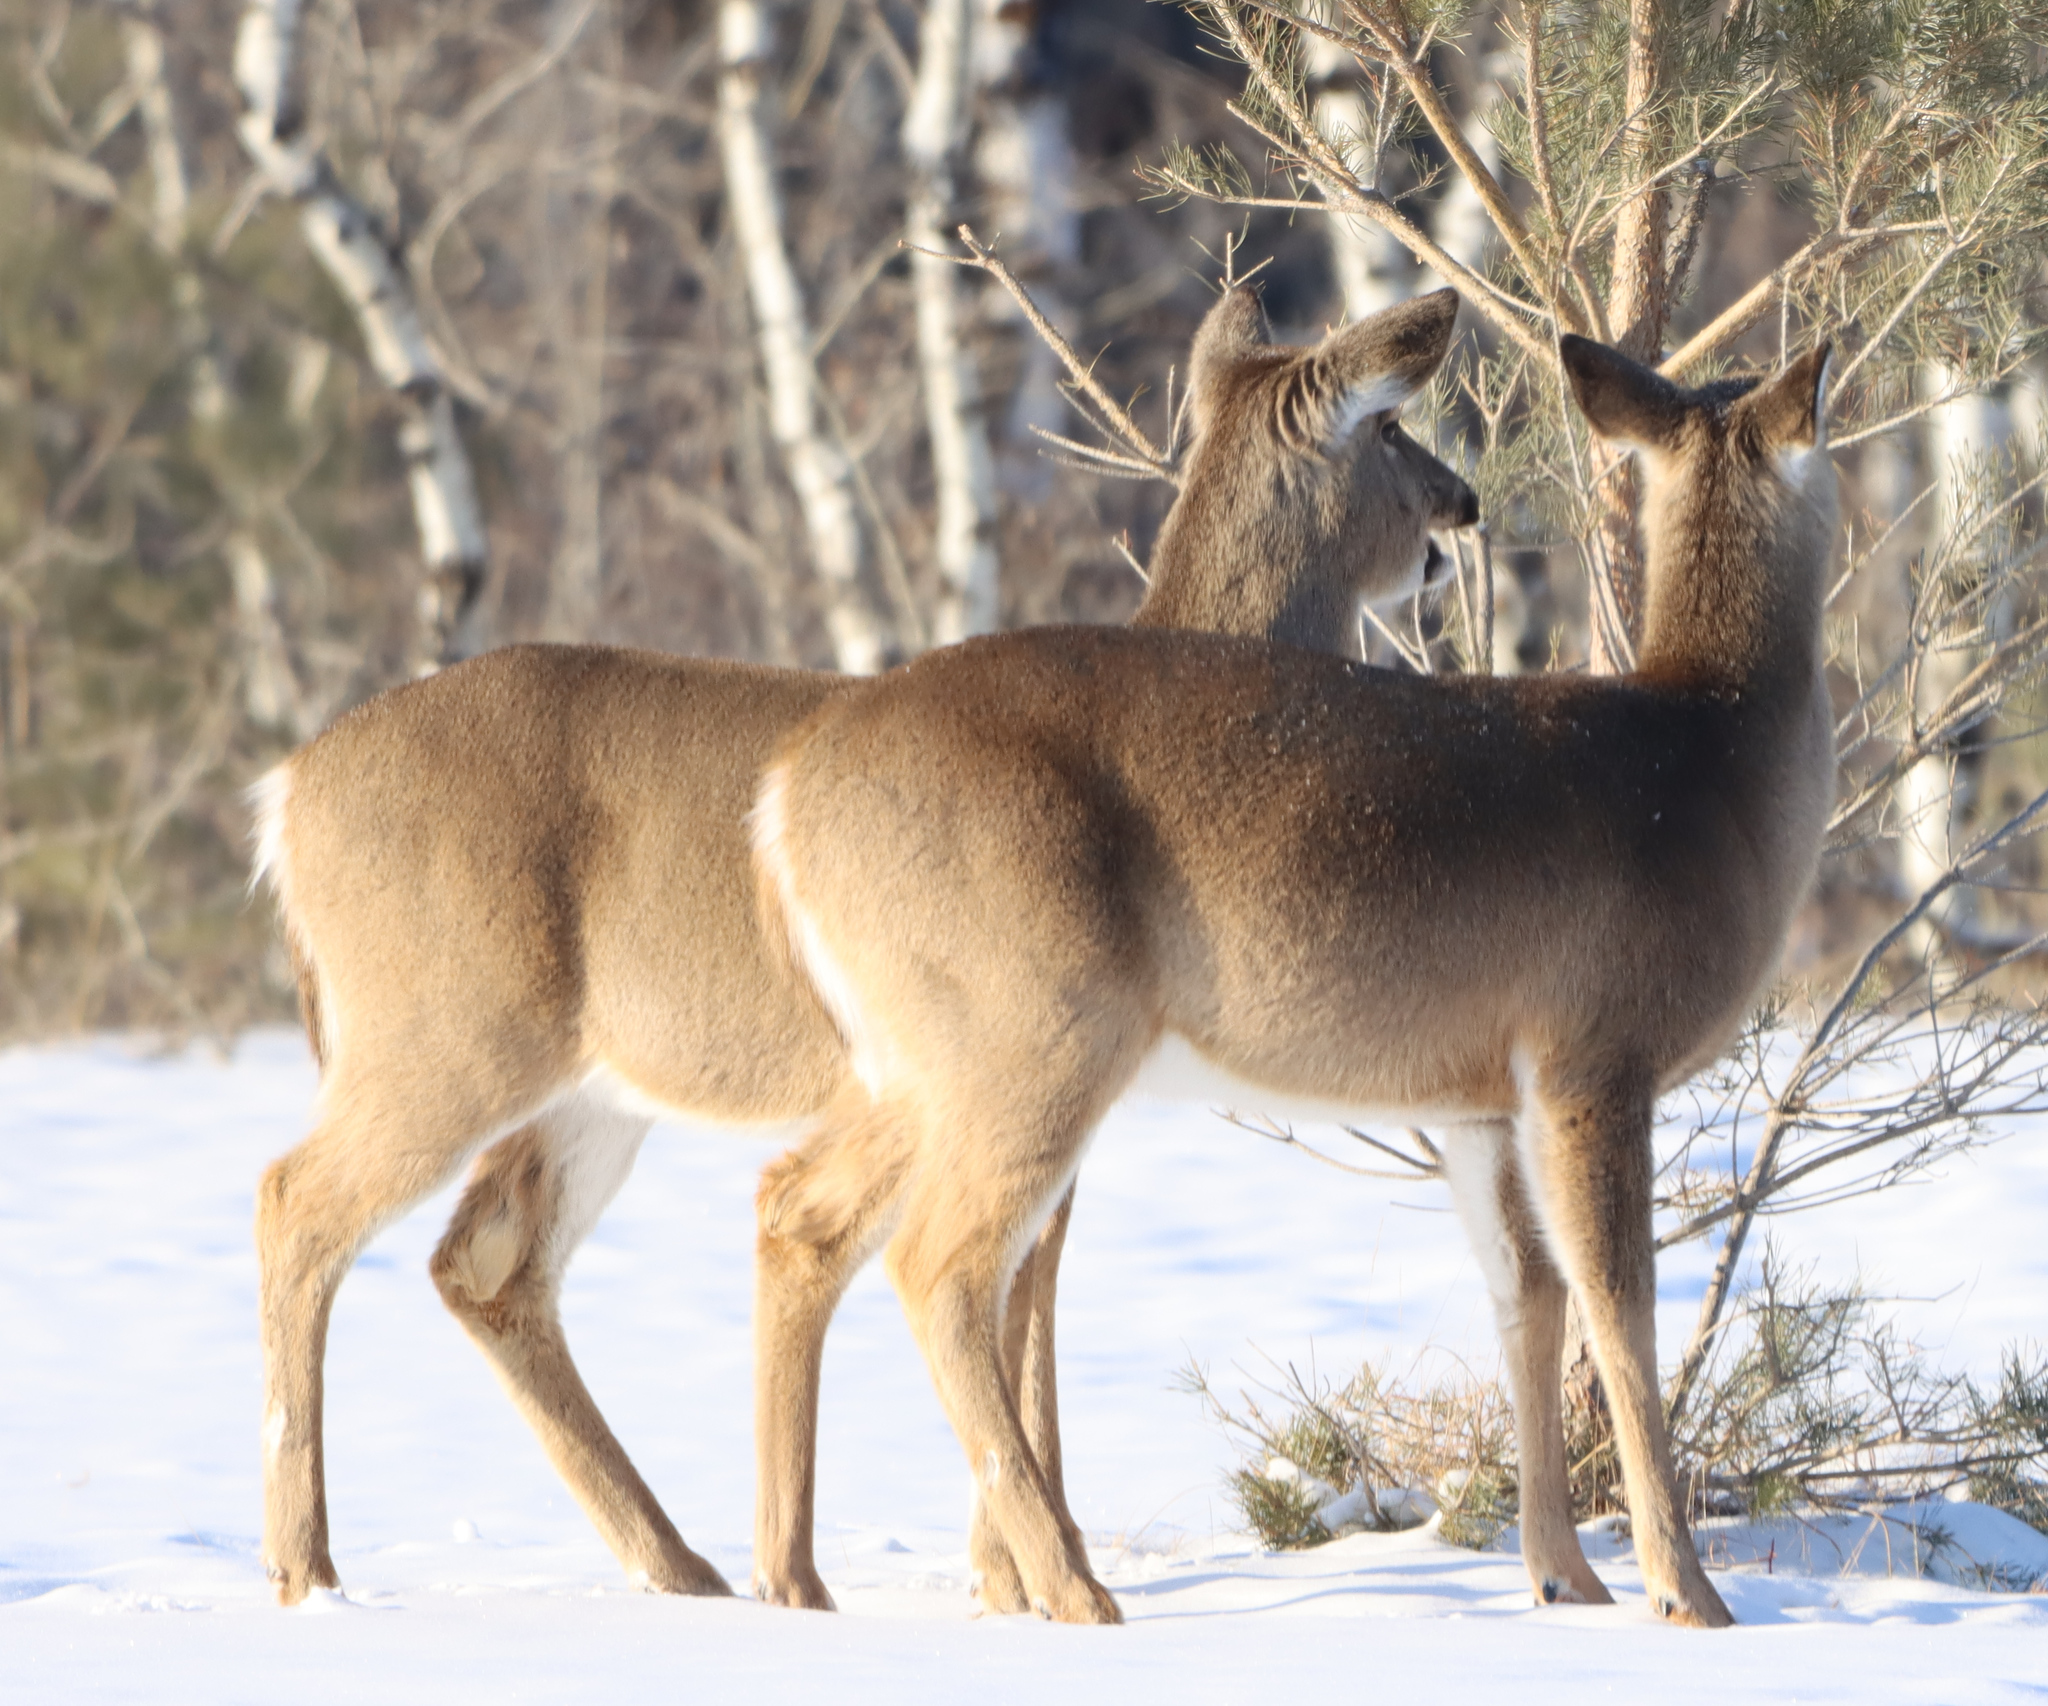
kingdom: Animalia
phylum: Chordata
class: Mammalia
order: Artiodactyla
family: Cervidae
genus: Odocoileus
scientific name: Odocoileus virginianus
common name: White-tailed deer
